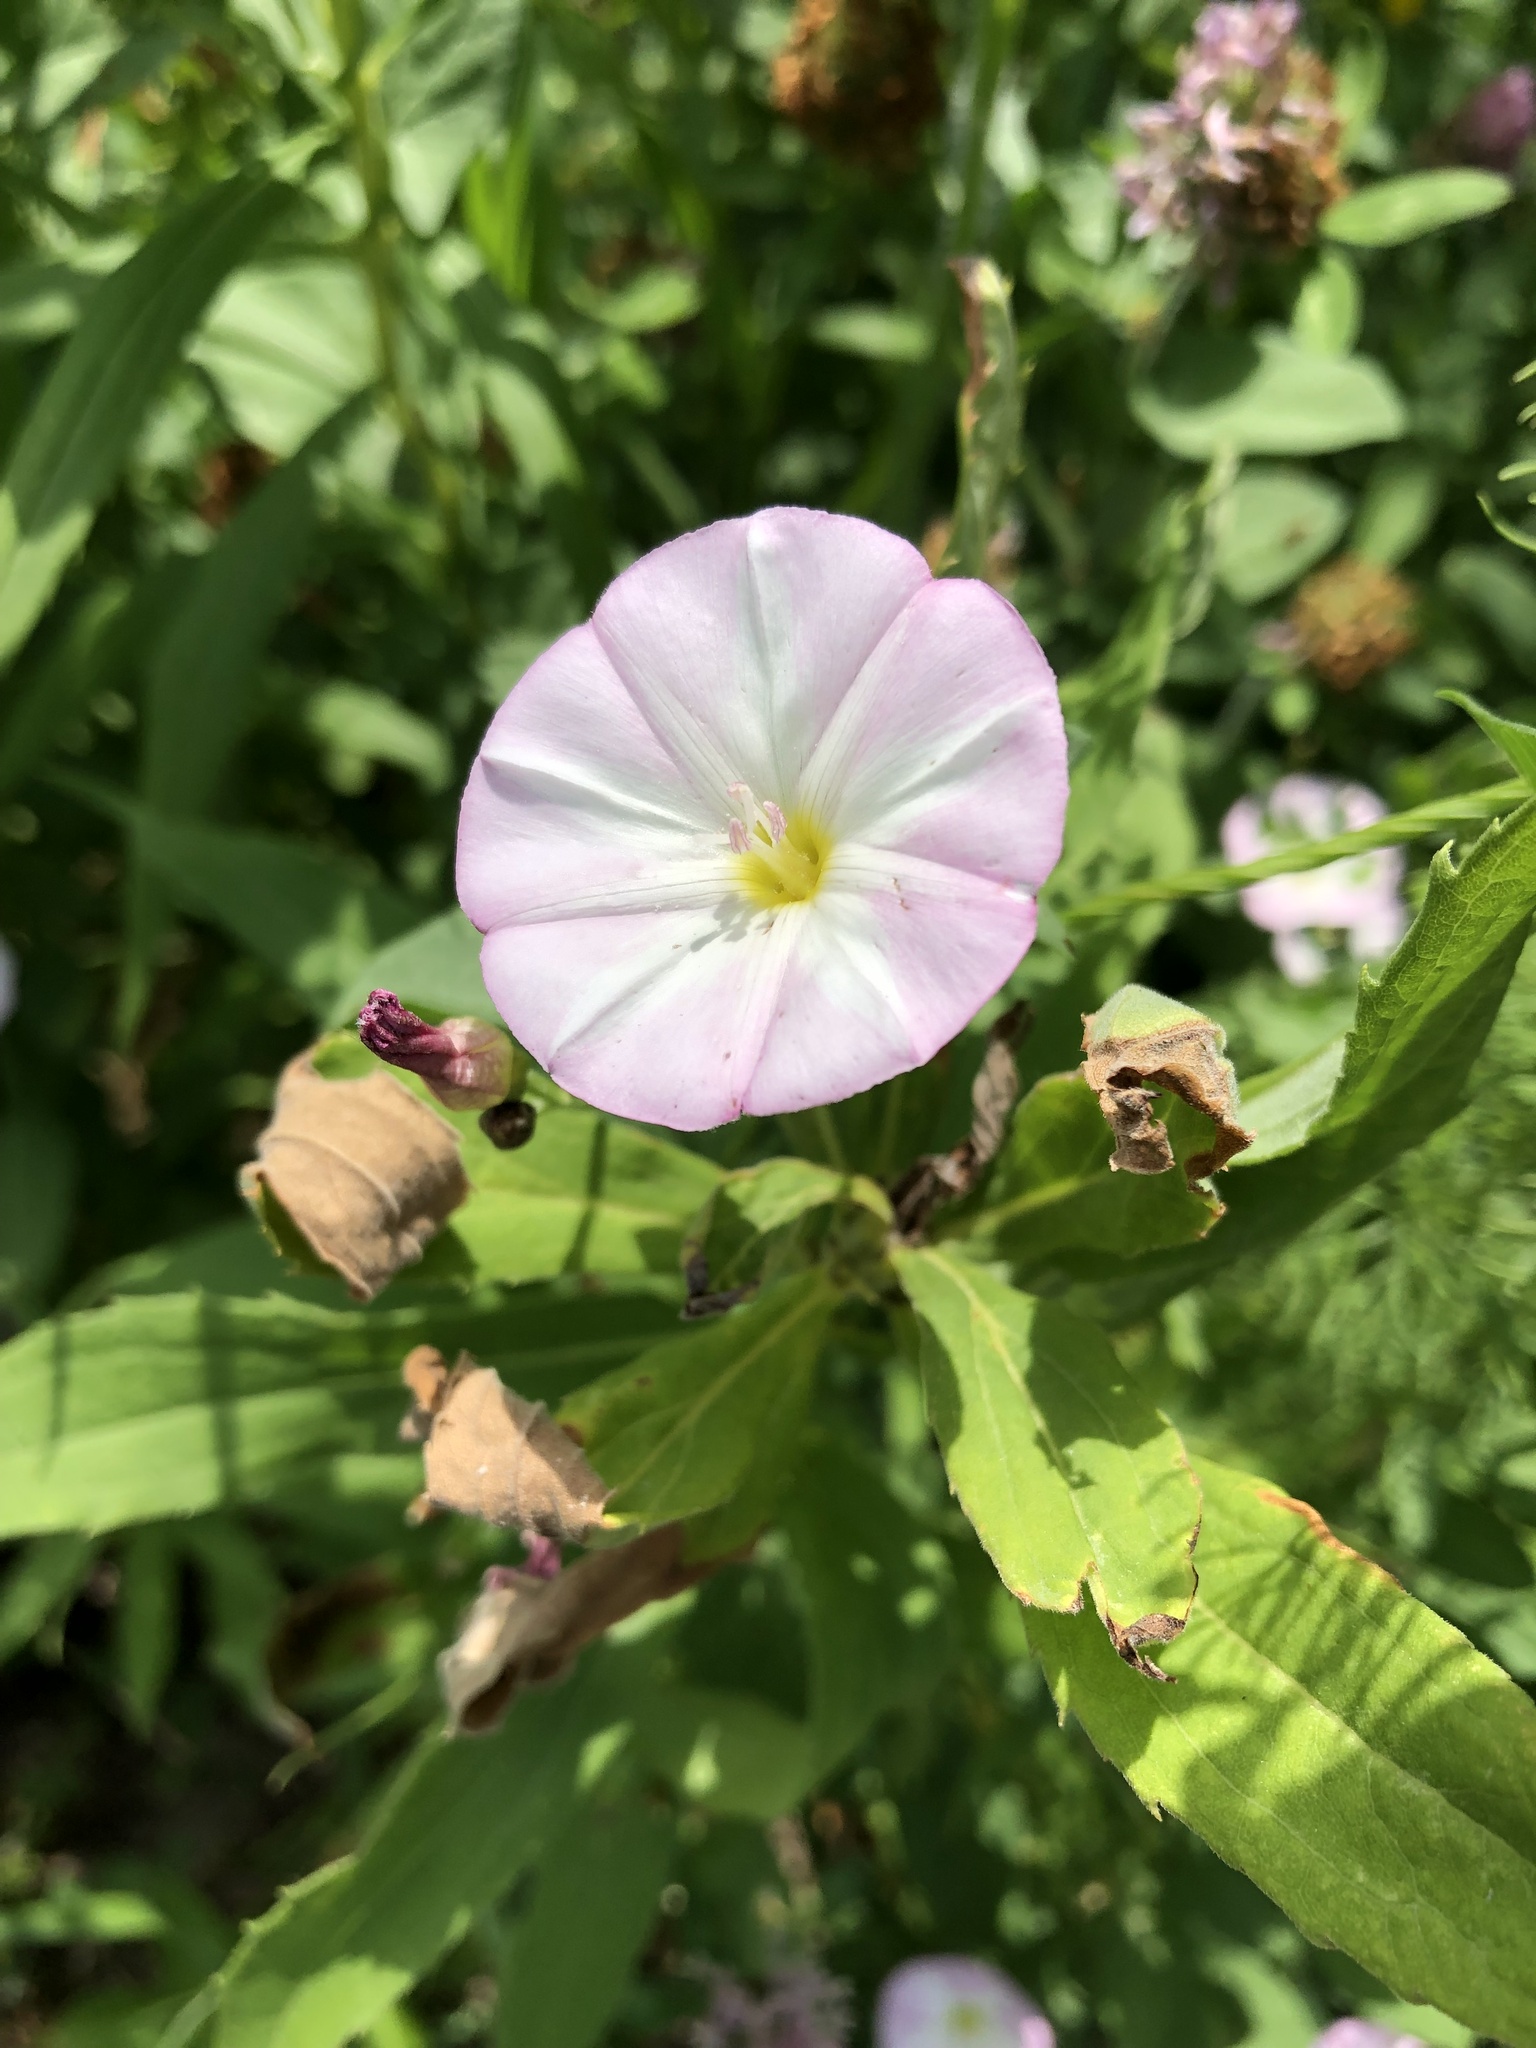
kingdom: Plantae
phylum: Tracheophyta
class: Magnoliopsida
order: Solanales
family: Convolvulaceae
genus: Convolvulus
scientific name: Convolvulus arvensis
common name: Field bindweed
